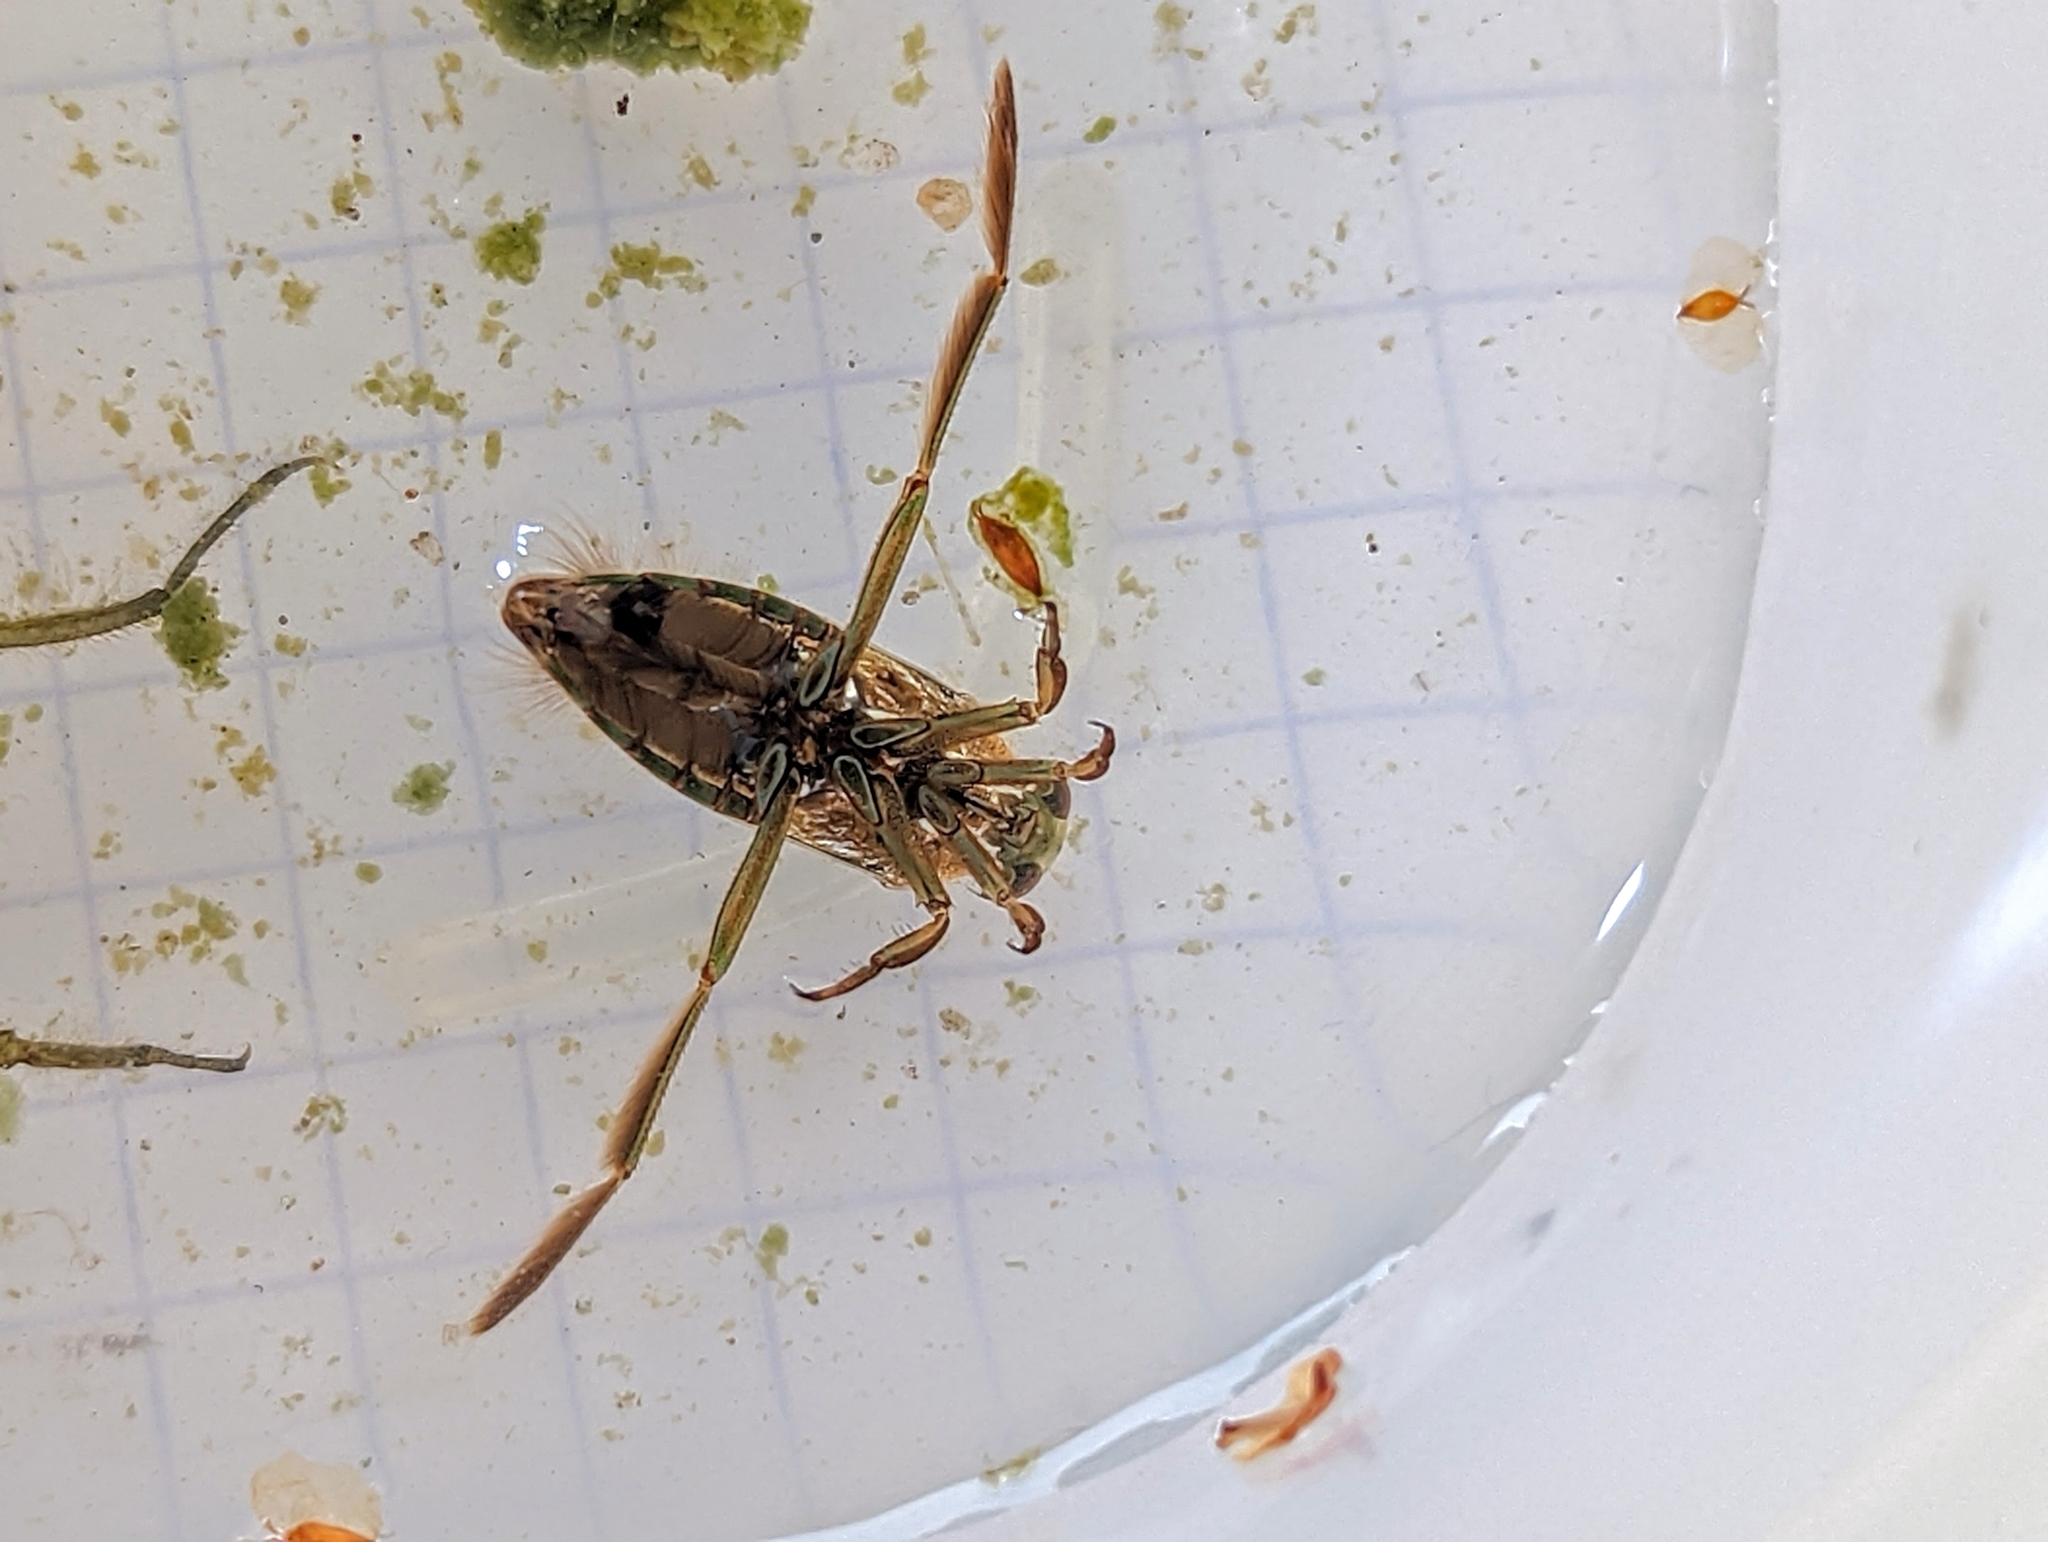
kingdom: Animalia
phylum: Arthropoda
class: Insecta
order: Hemiptera
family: Notonectidae
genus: Notonecta
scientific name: Notonecta glauca
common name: Common water-boatman
